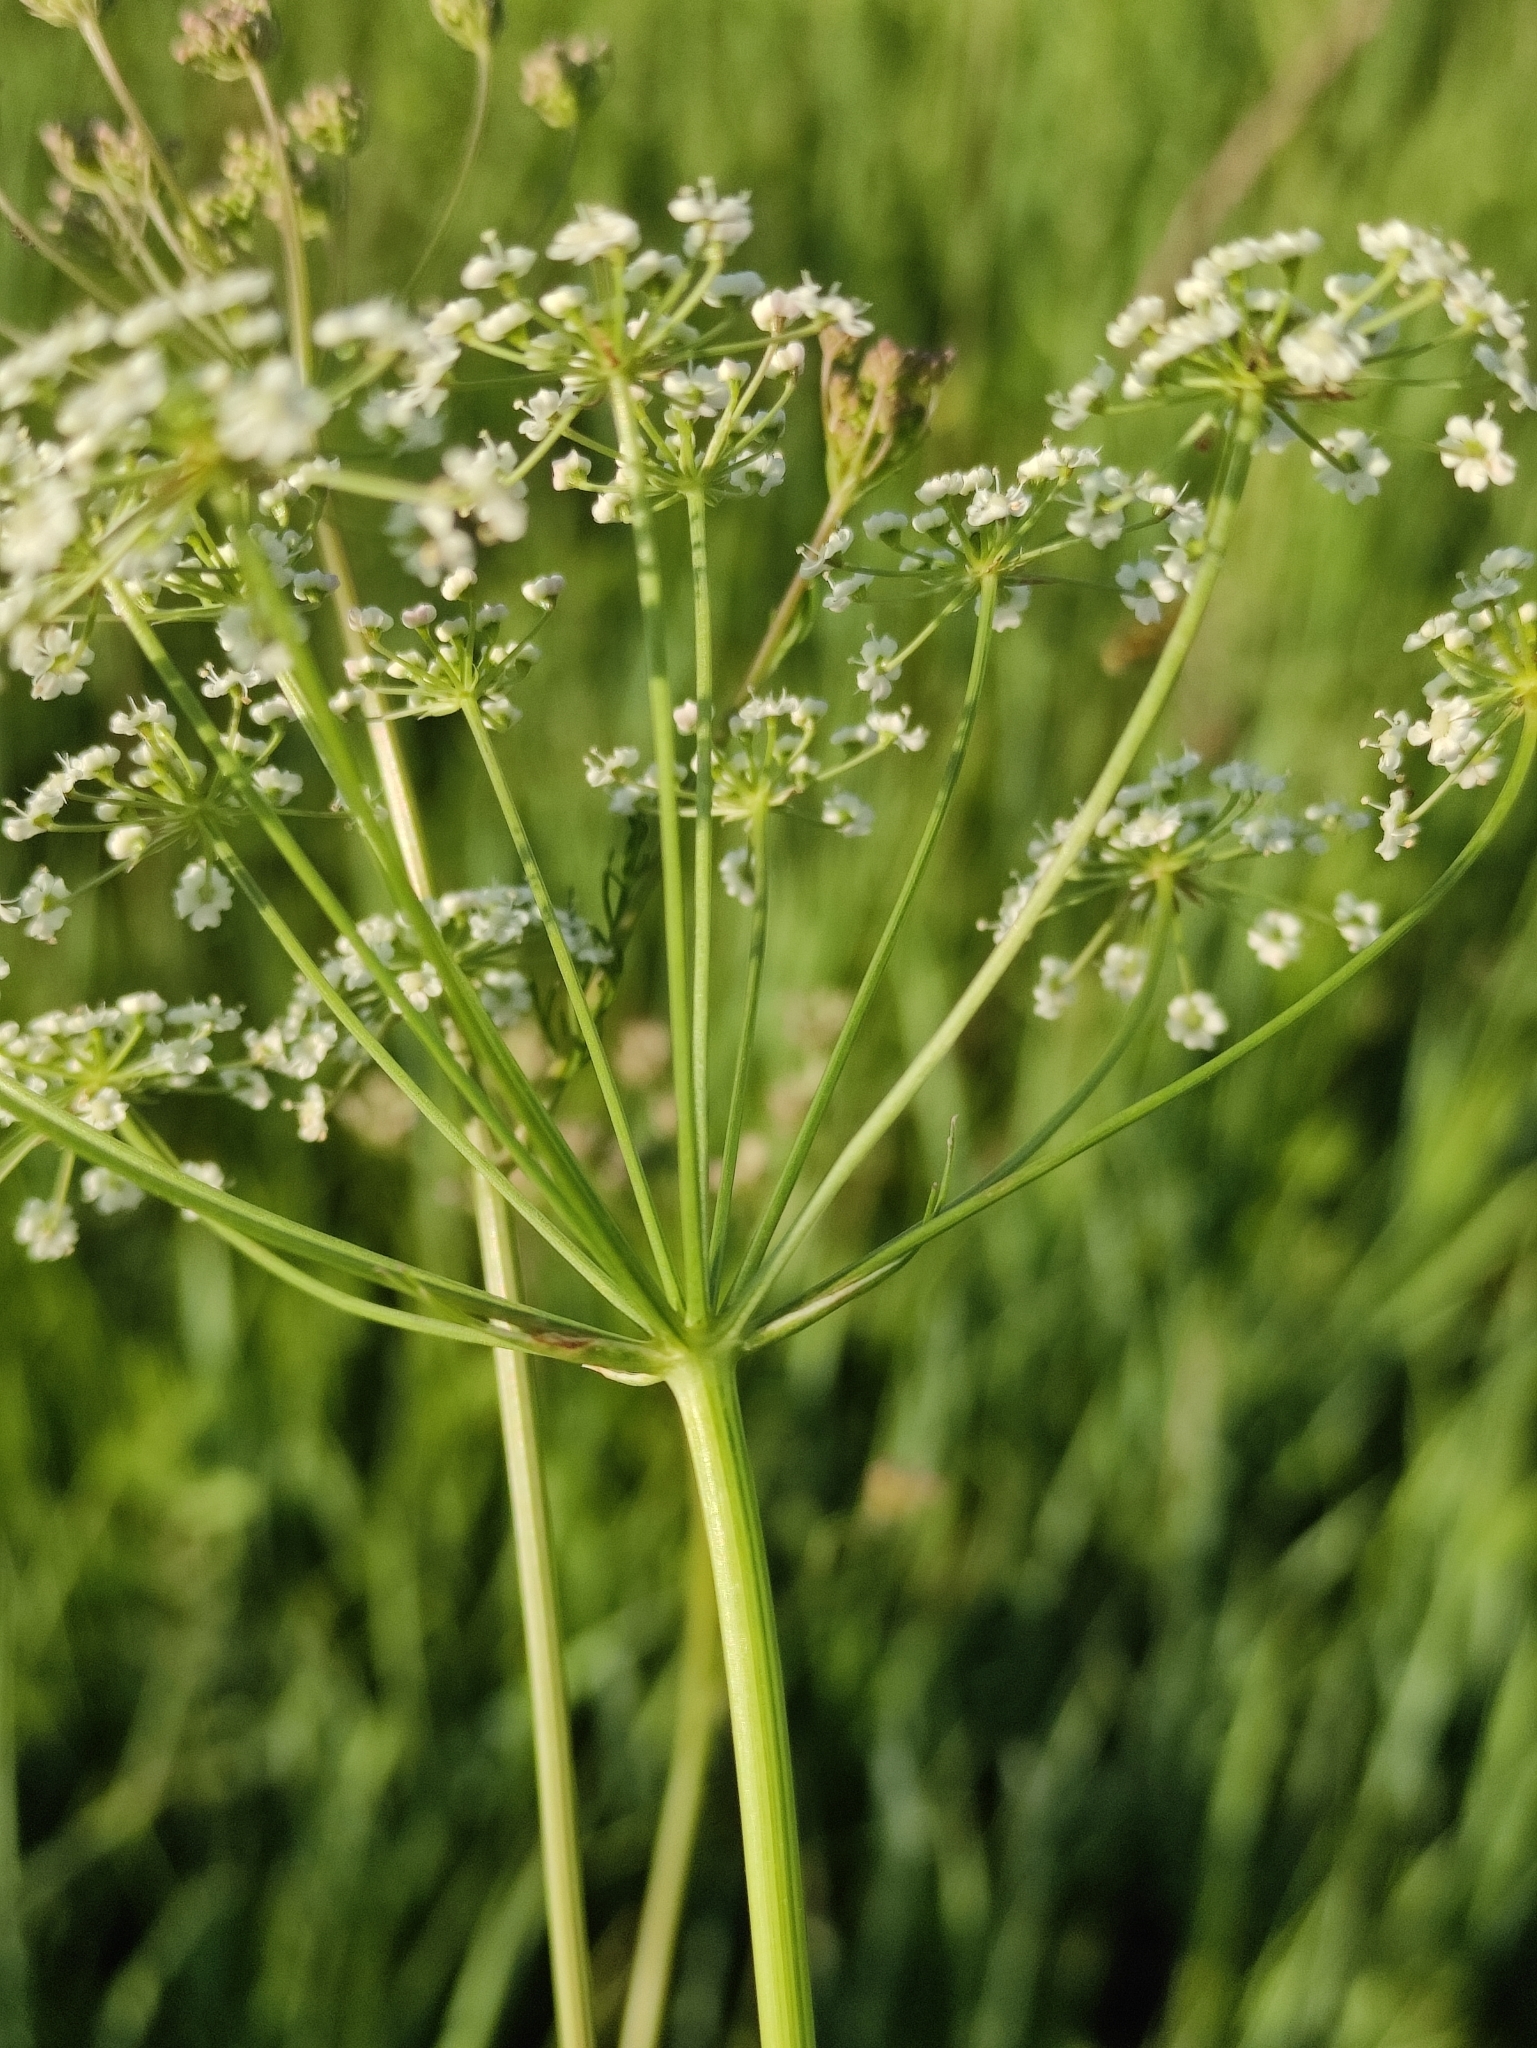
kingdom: Plantae
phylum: Tracheophyta
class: Magnoliopsida
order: Apiales
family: Apiaceae
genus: Carum
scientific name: Carum buriaticum
